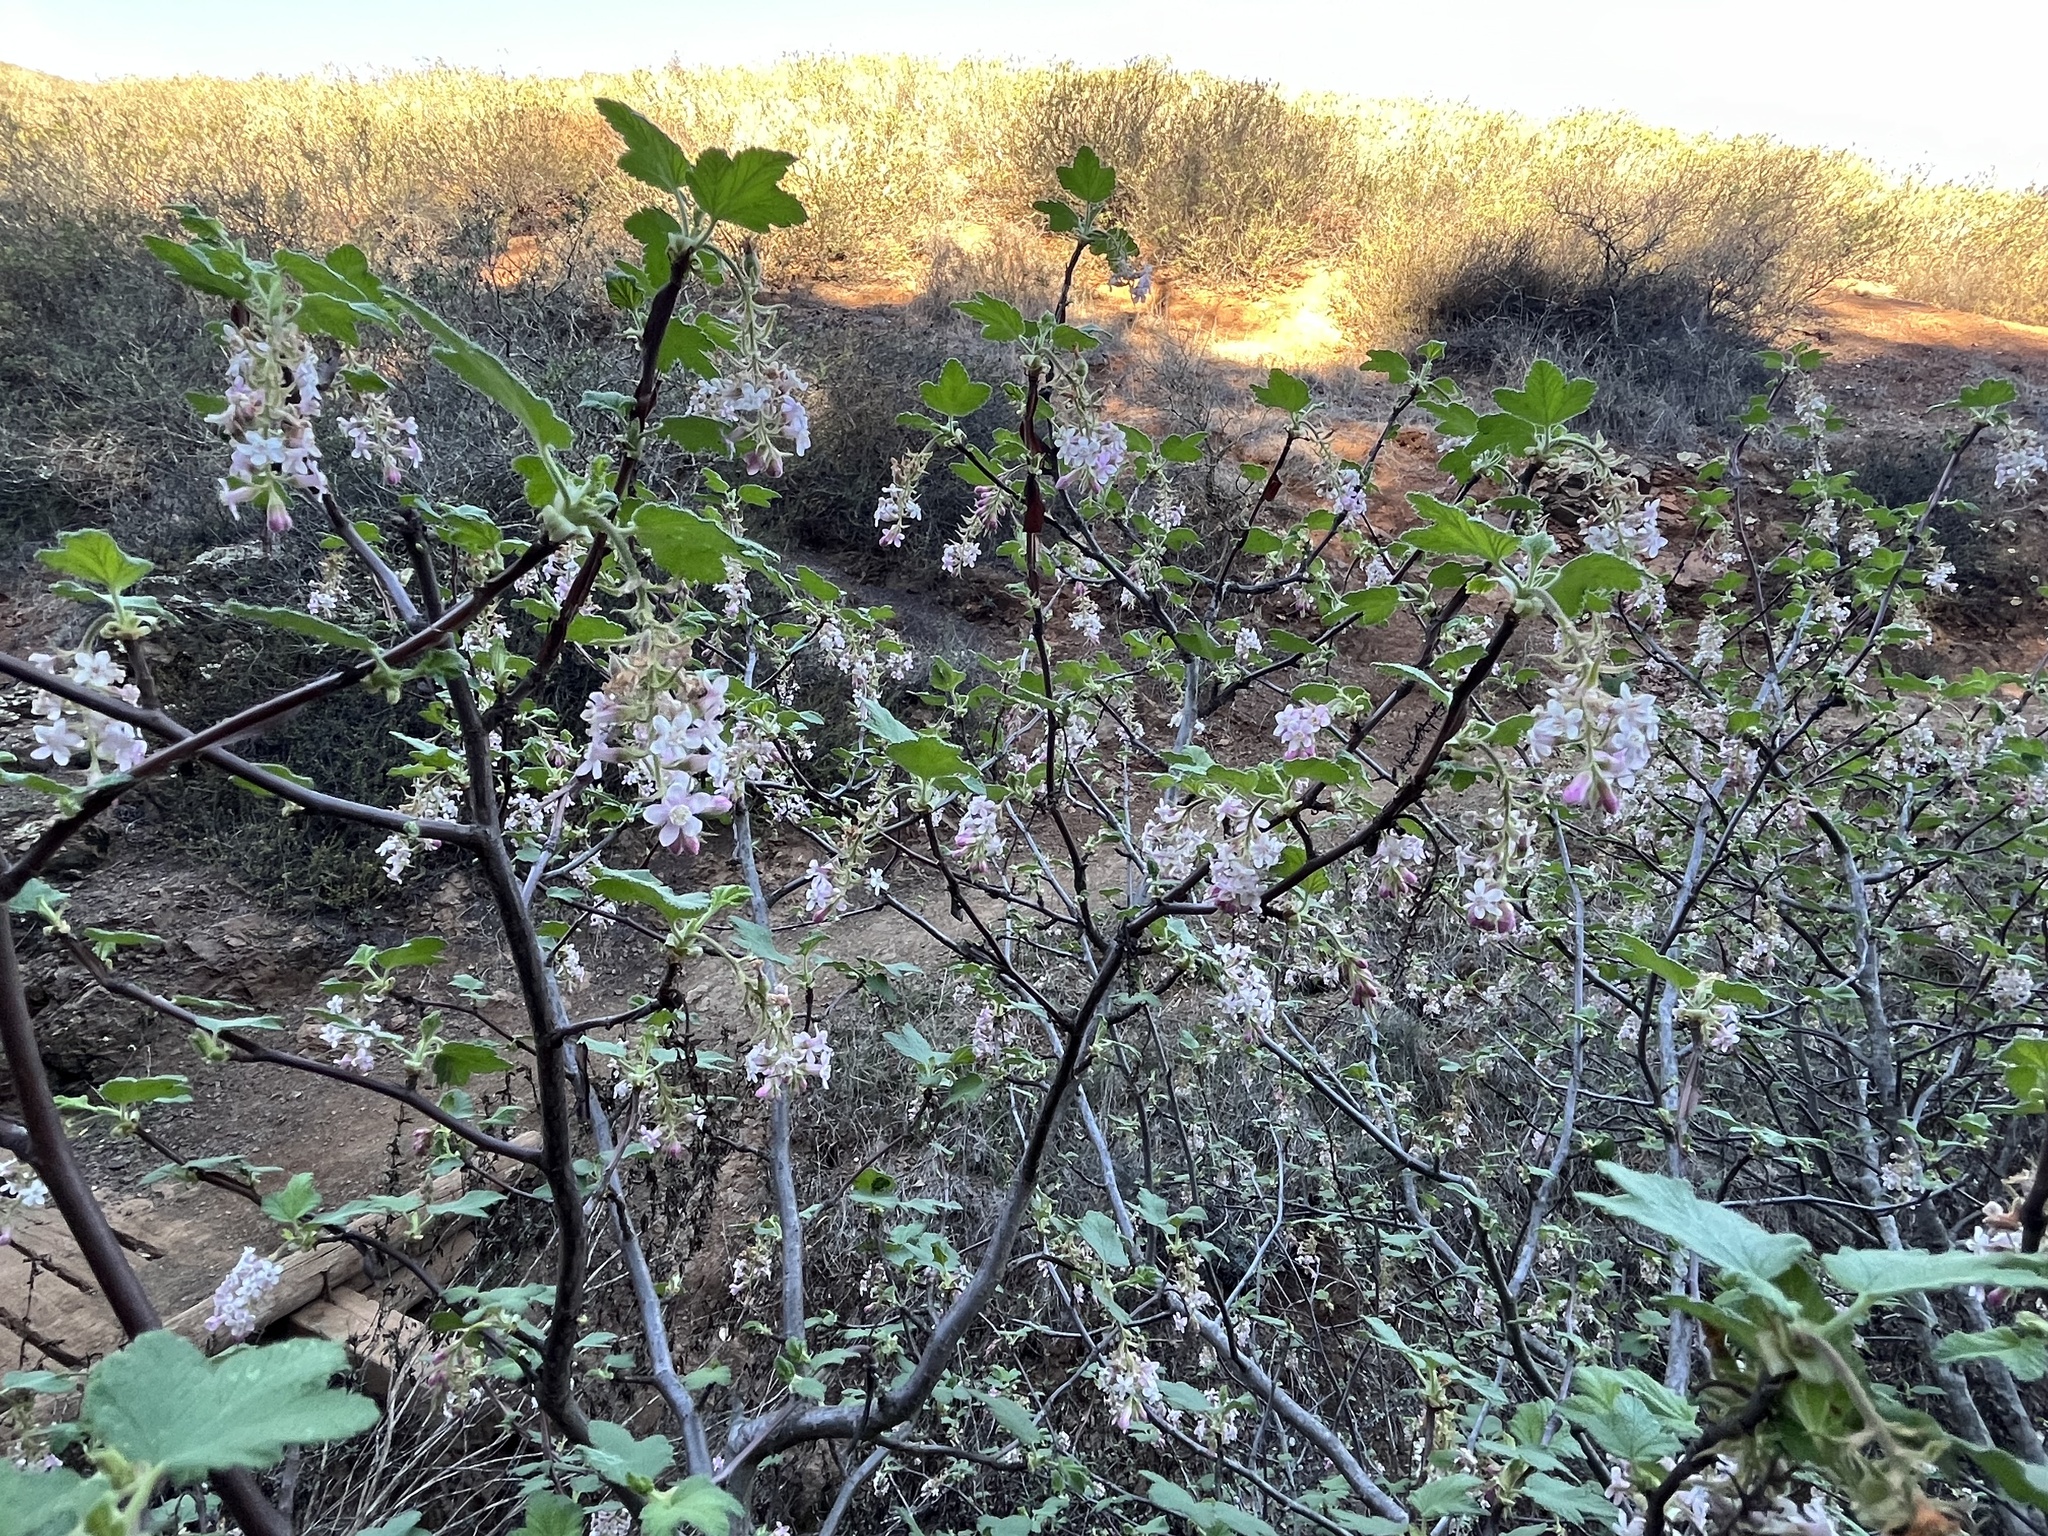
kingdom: Plantae
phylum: Tracheophyta
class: Magnoliopsida
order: Saxifragales
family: Grossulariaceae
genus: Ribes
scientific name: Ribes malvaceum
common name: Chaparral currant
